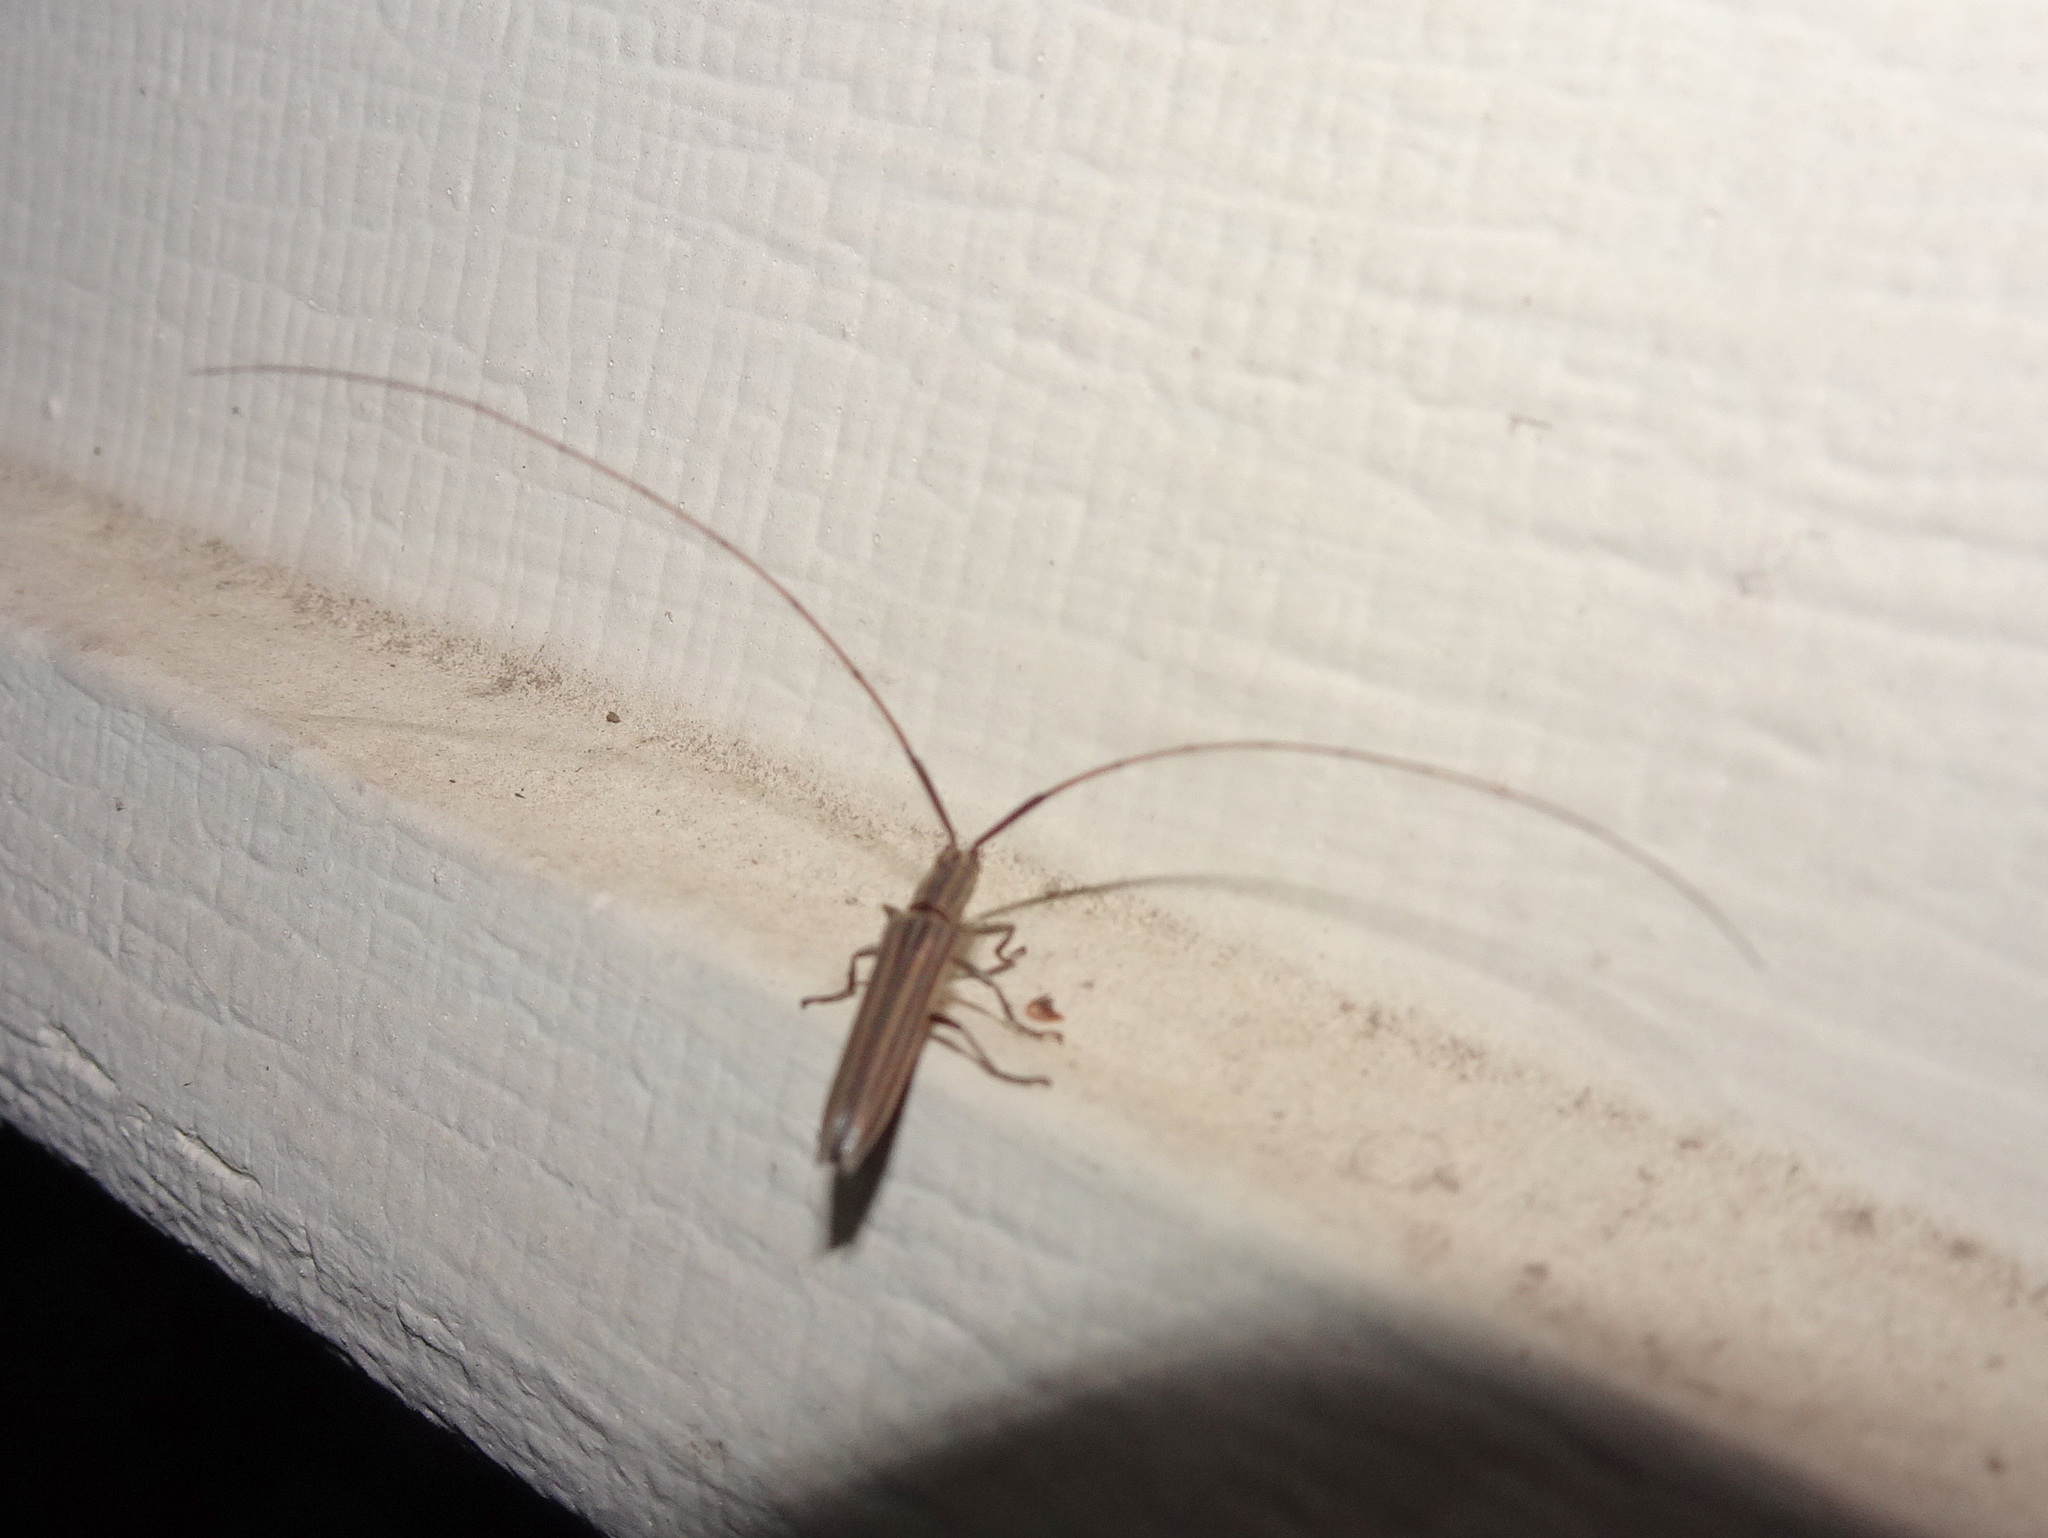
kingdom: Animalia
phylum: Arthropoda
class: Insecta
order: Coleoptera
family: Cerambycidae
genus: Hippopsis
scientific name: Hippopsis
